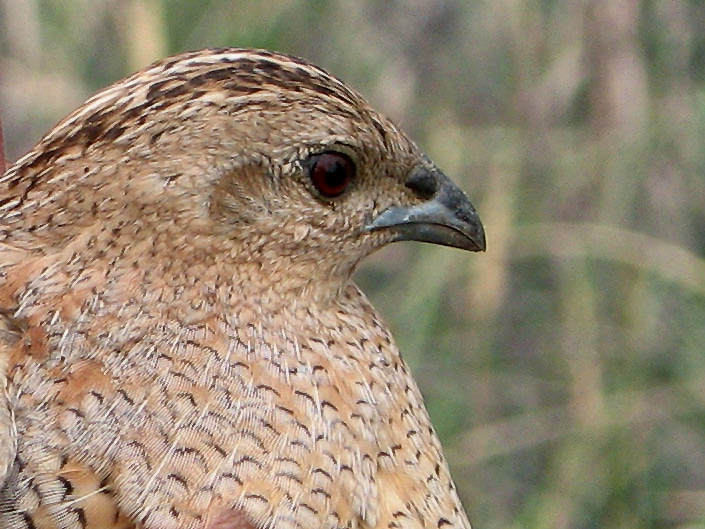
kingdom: Animalia
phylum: Chordata
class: Aves
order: Galliformes
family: Phasianidae
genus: Synoicus
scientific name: Synoicus ypsilophorus
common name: Brown quail
